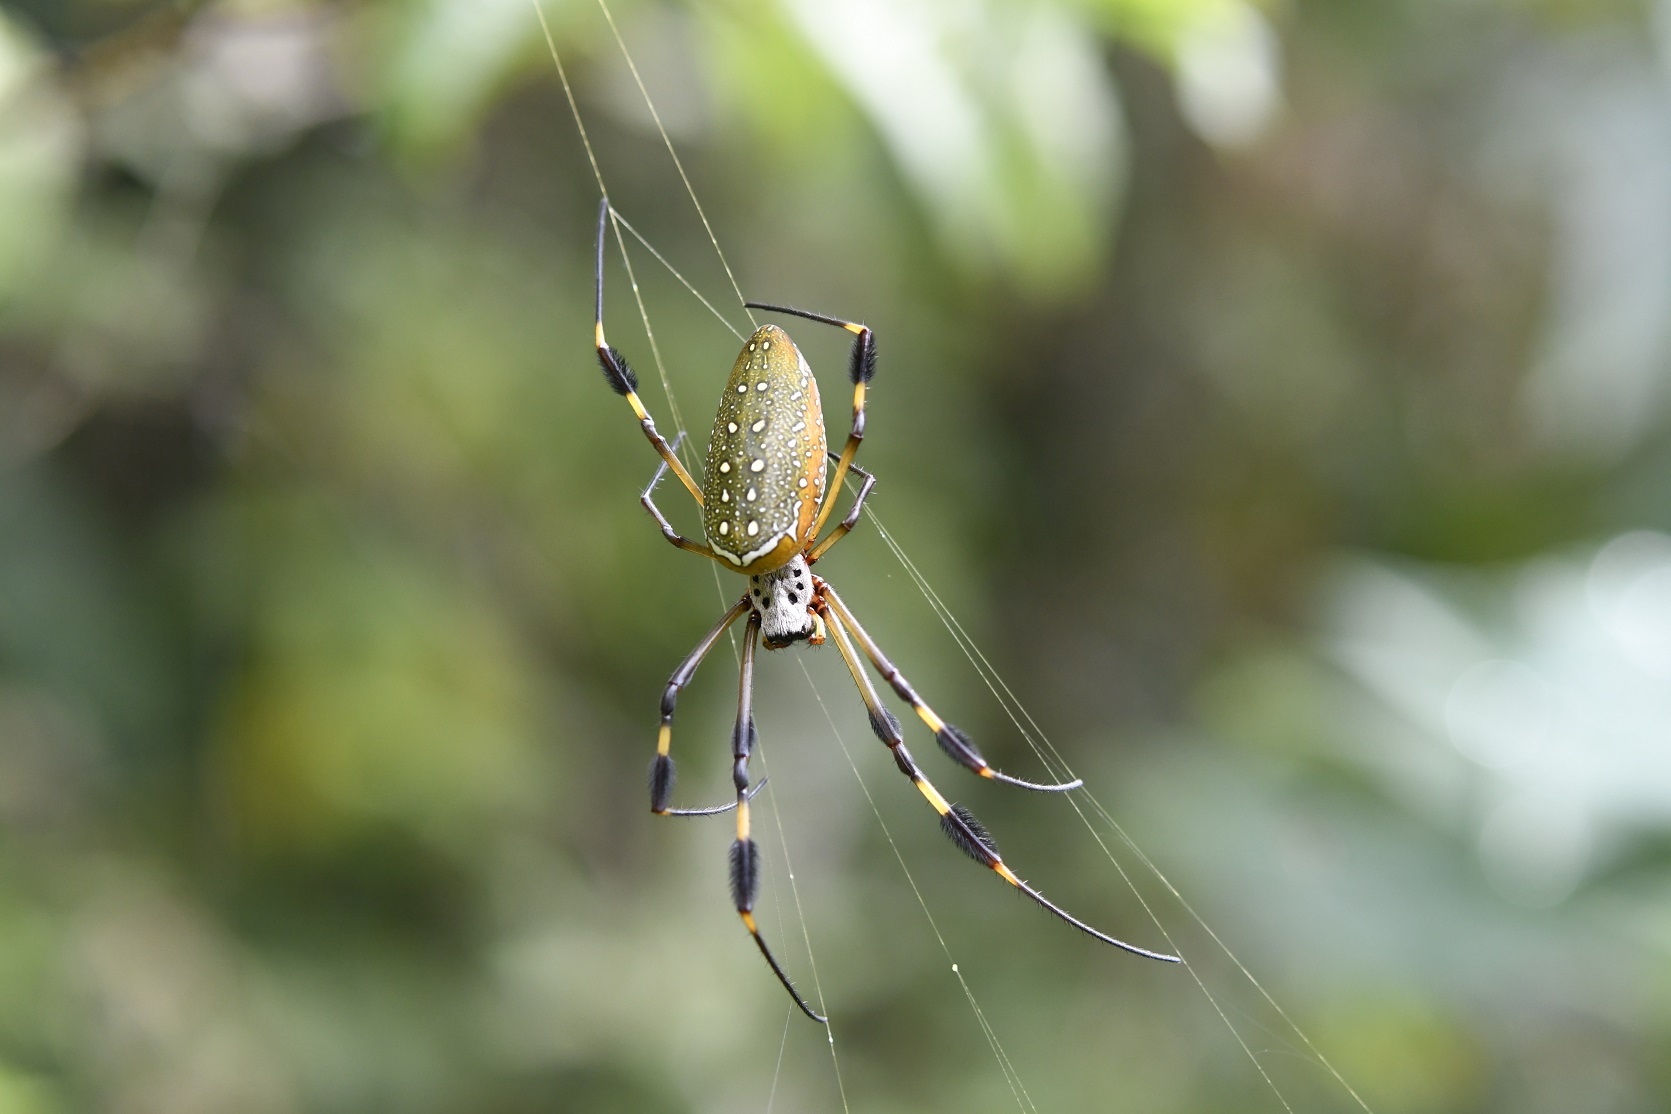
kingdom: Animalia
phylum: Arthropoda
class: Arachnida
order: Araneae
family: Araneidae
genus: Trichonephila
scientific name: Trichonephila clavipes
